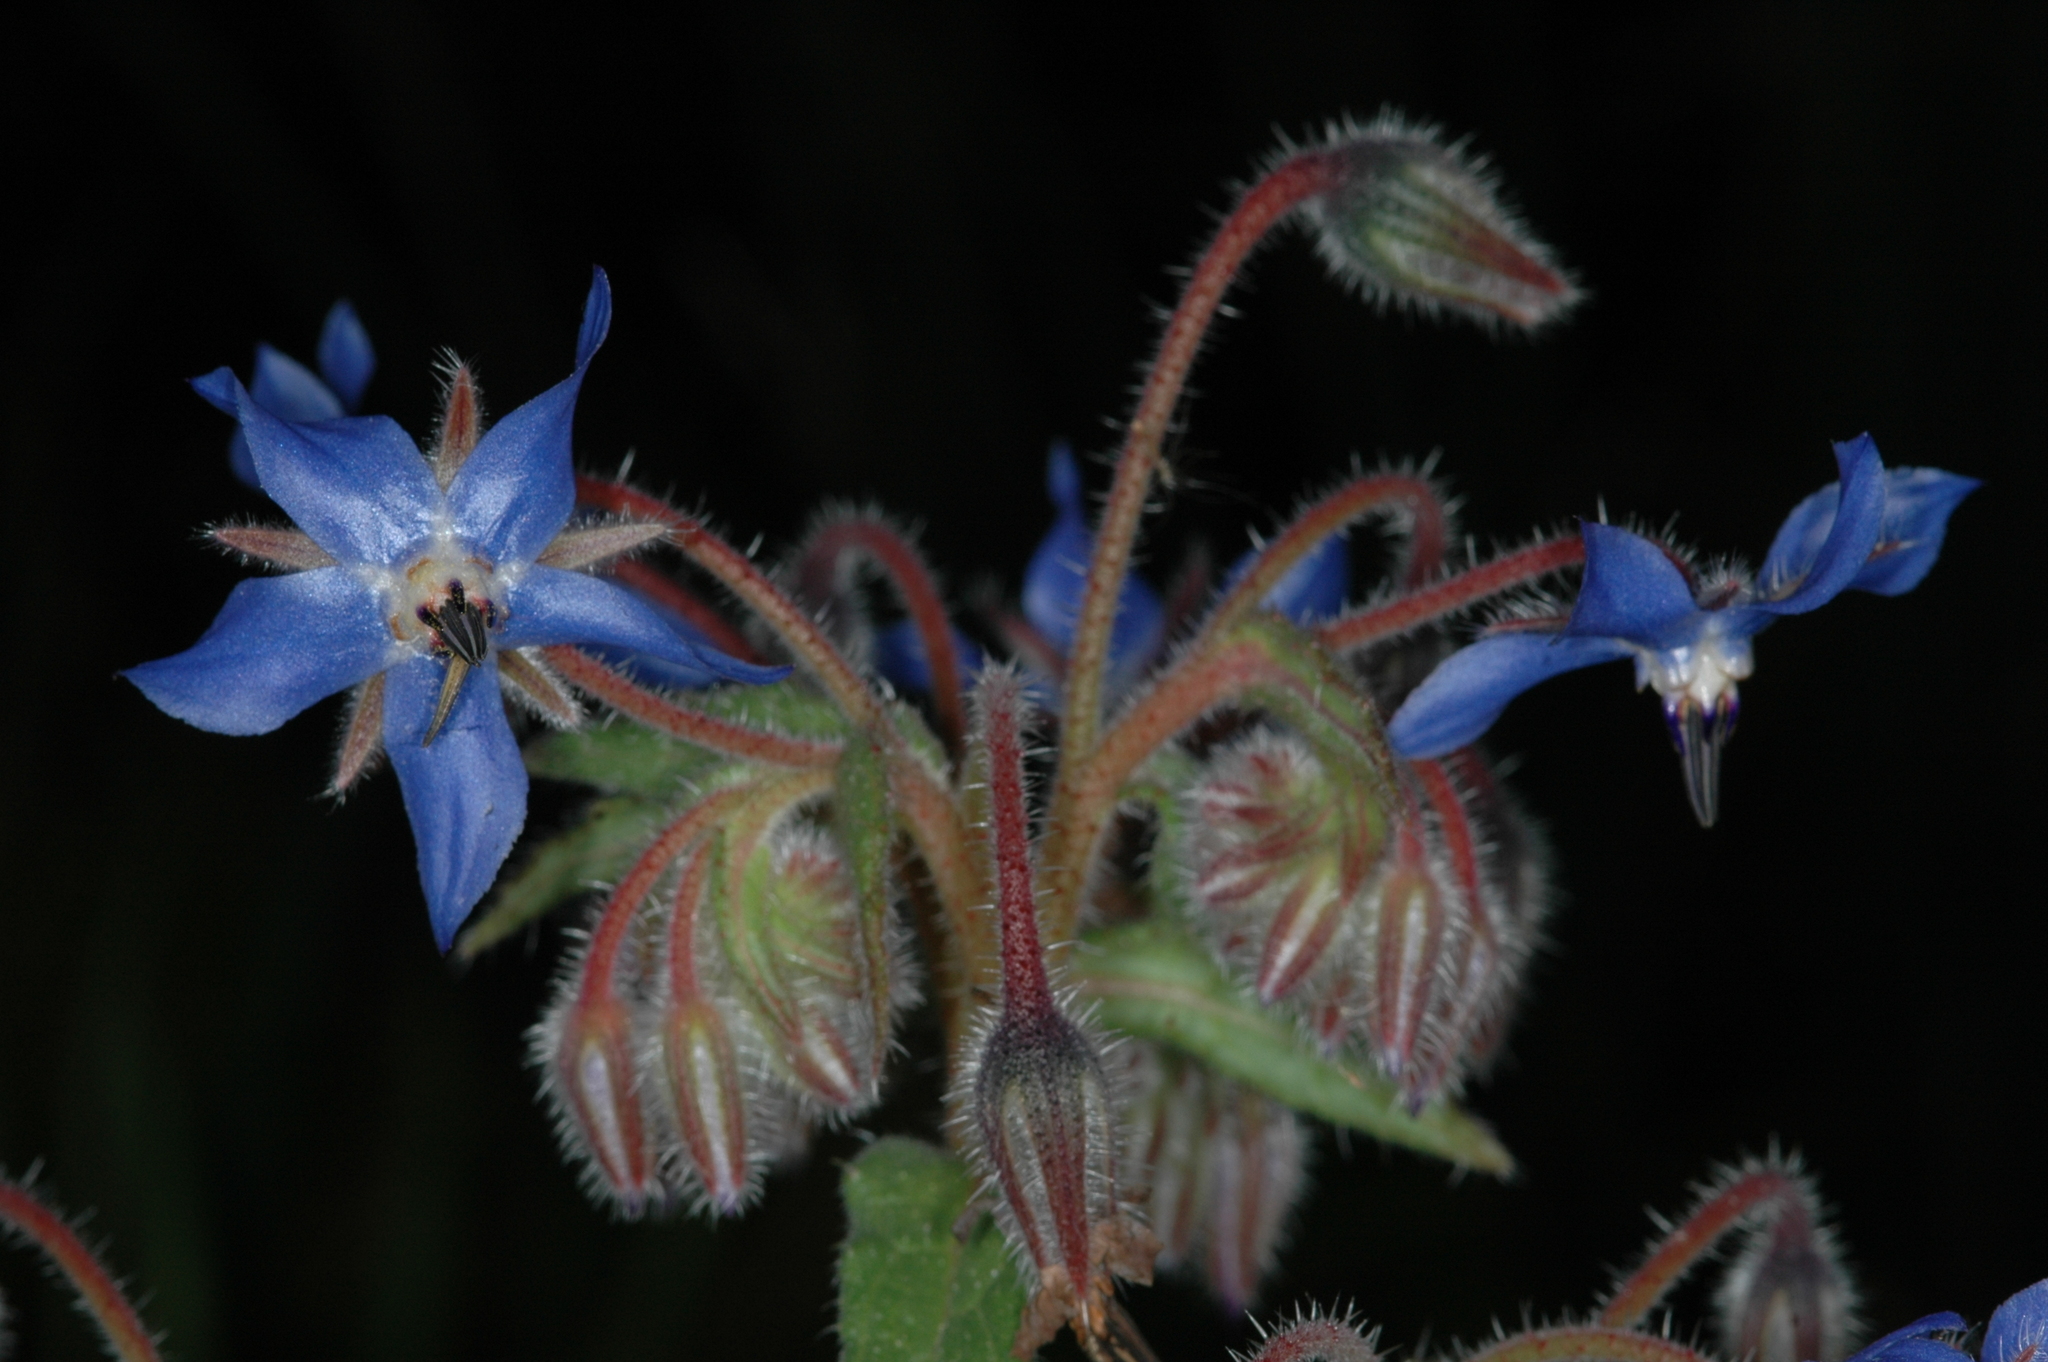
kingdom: Plantae
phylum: Tracheophyta
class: Magnoliopsida
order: Boraginales
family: Boraginaceae
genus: Borago
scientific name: Borago officinalis
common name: Borage
